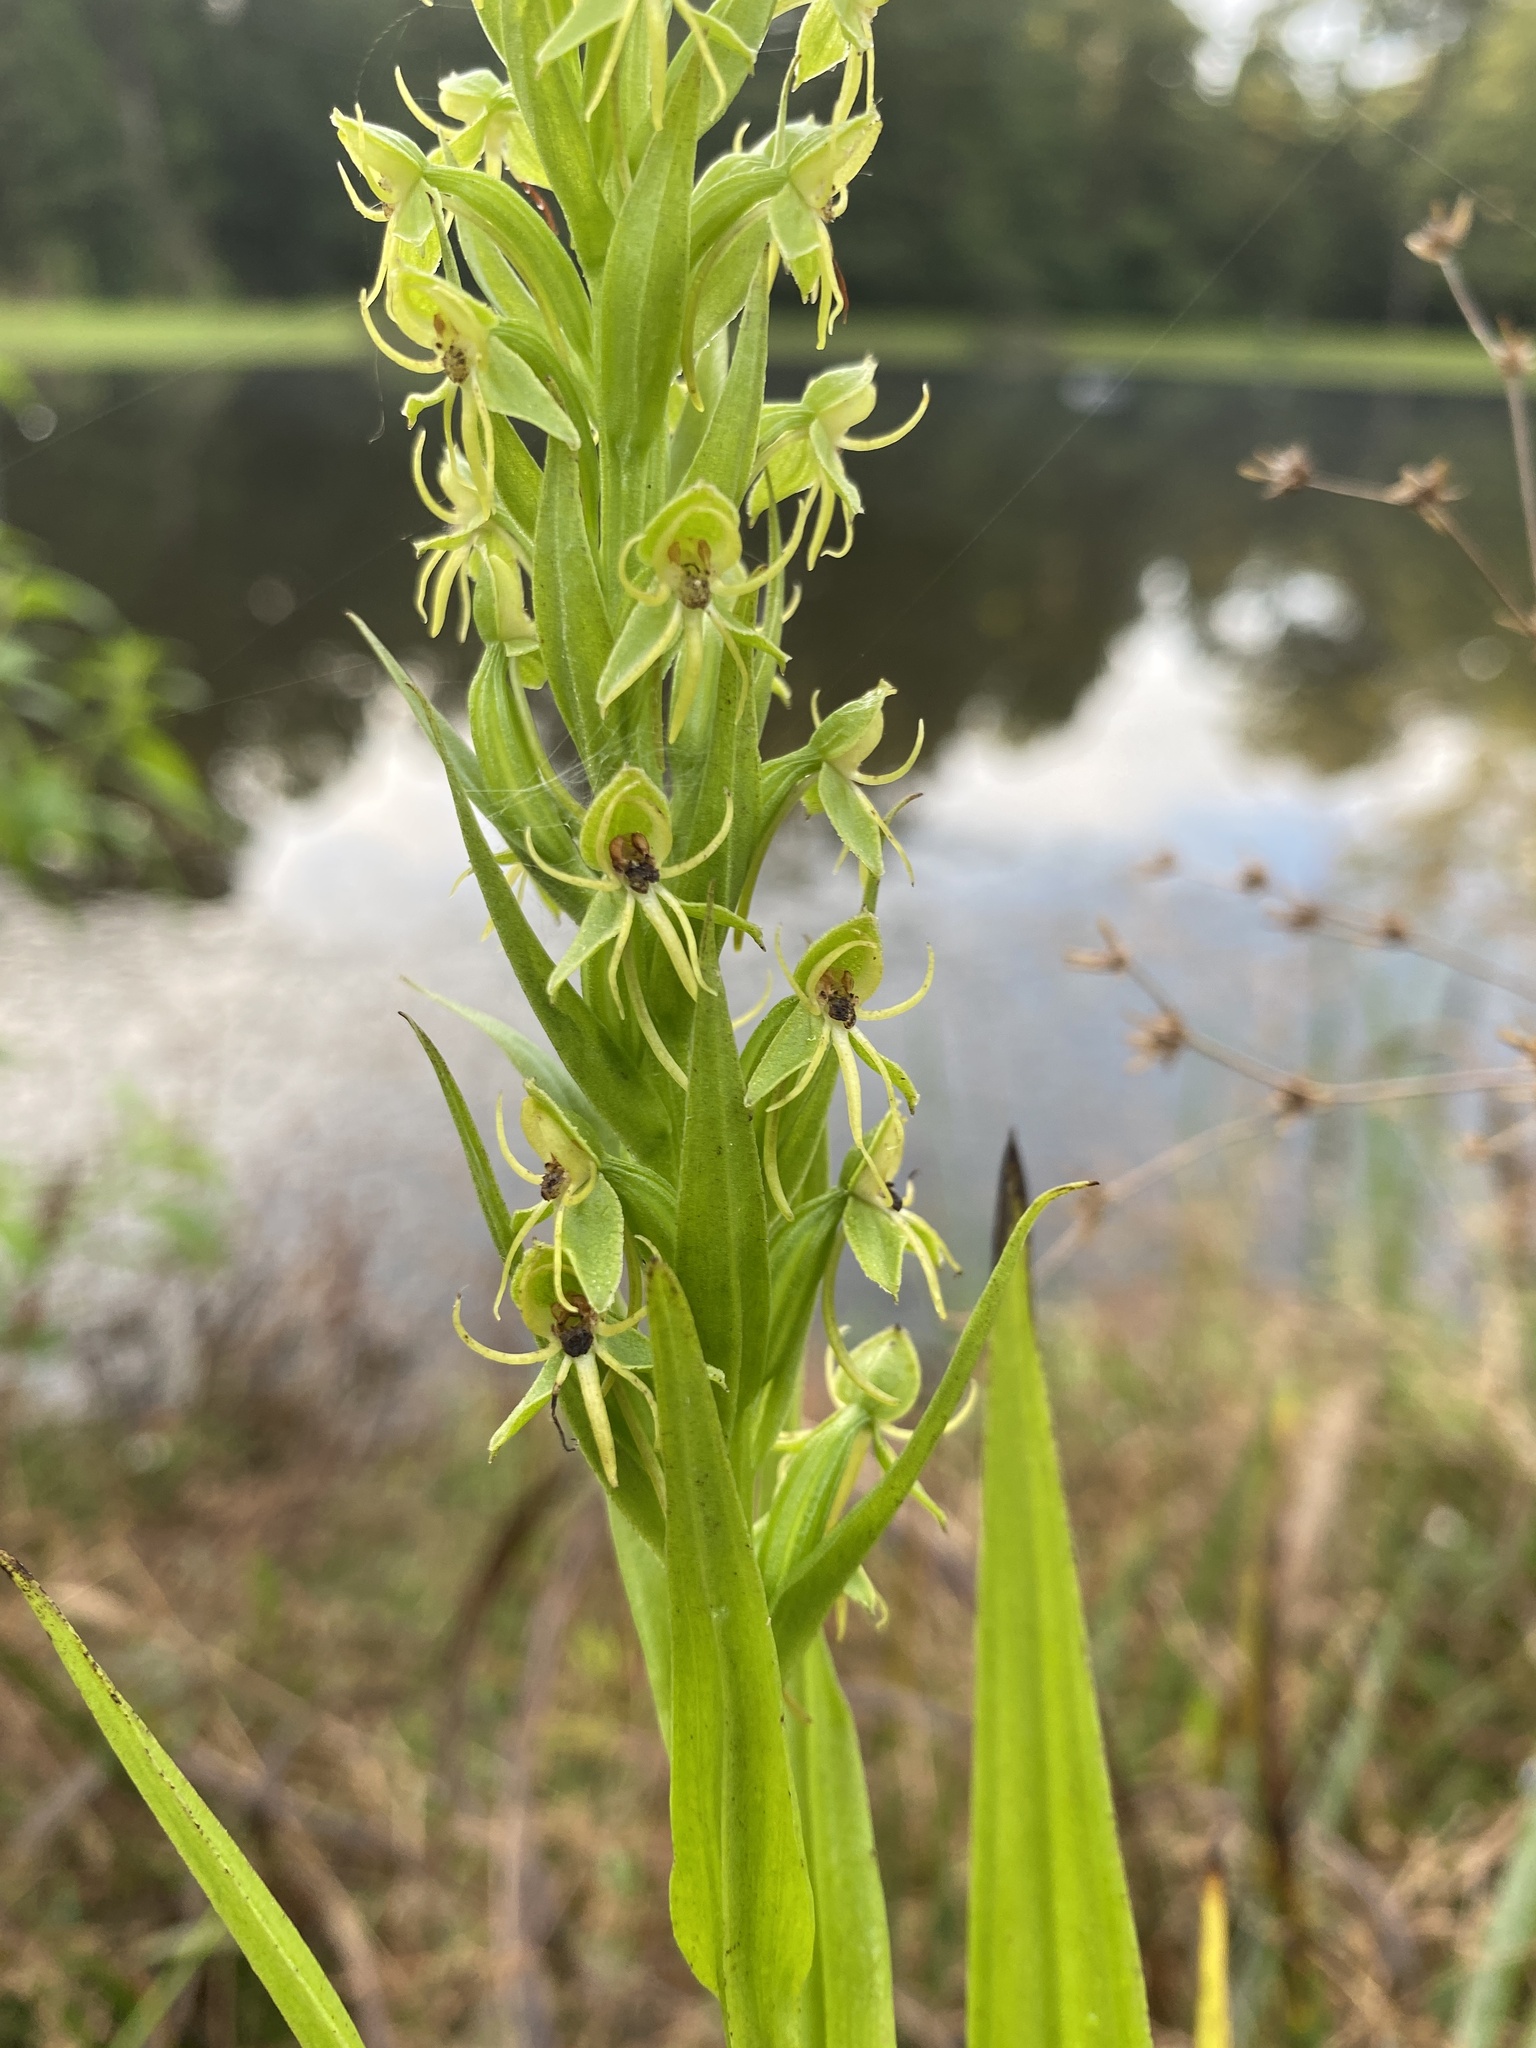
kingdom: Plantae
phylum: Tracheophyta
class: Liliopsida
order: Asparagales
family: Orchidaceae
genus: Habenaria
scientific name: Habenaria repens
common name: Water orchid
